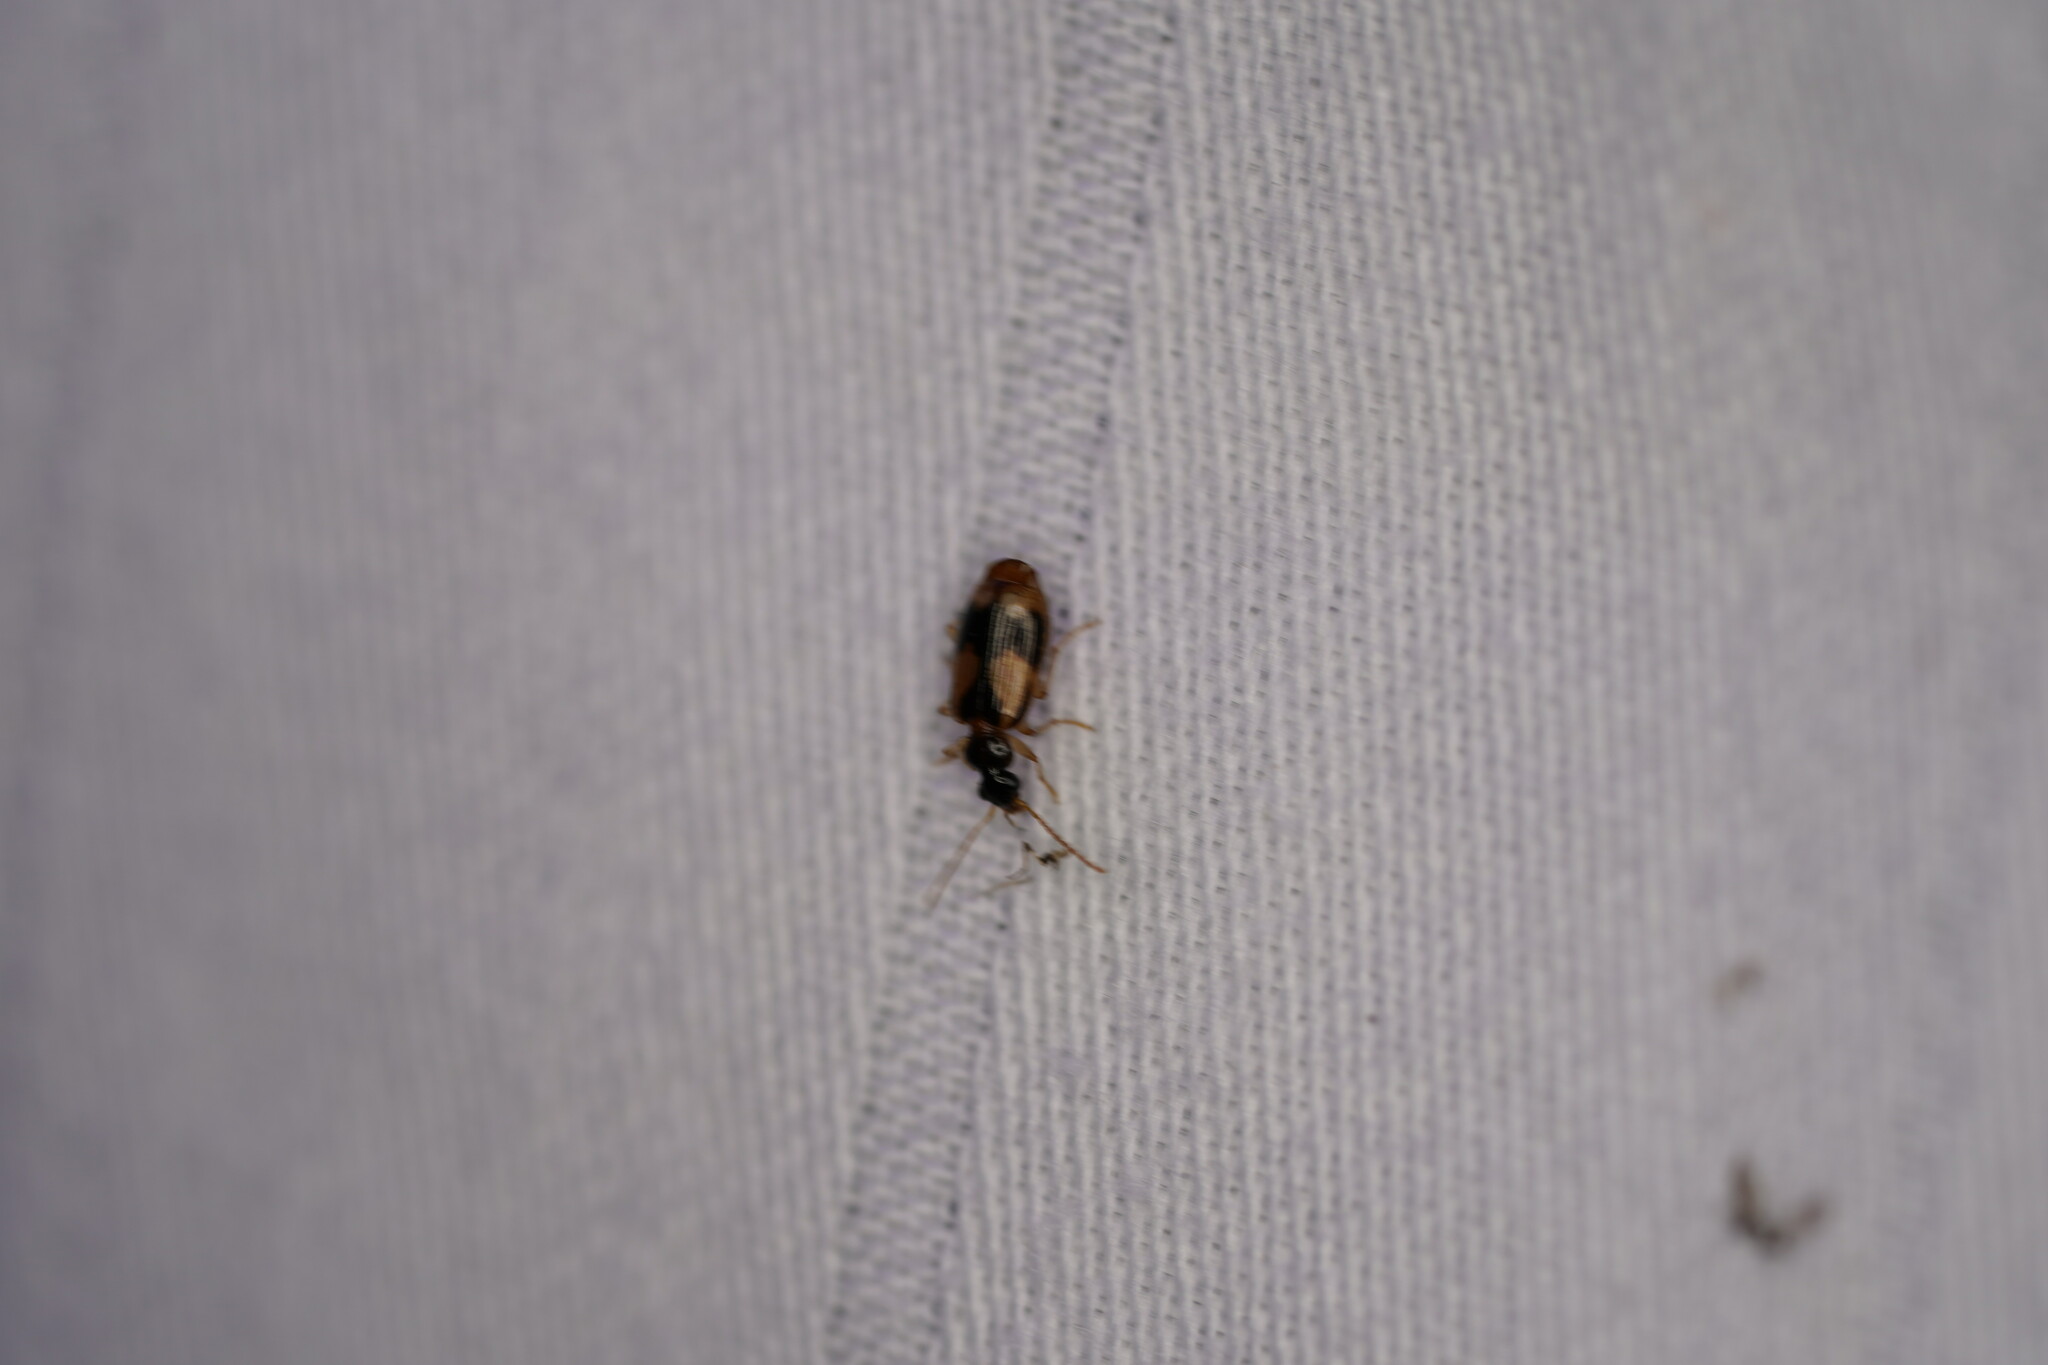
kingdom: Animalia
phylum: Arthropoda
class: Insecta
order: Coleoptera
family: Carabidae
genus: Lebia
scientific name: Lebia fuscata
